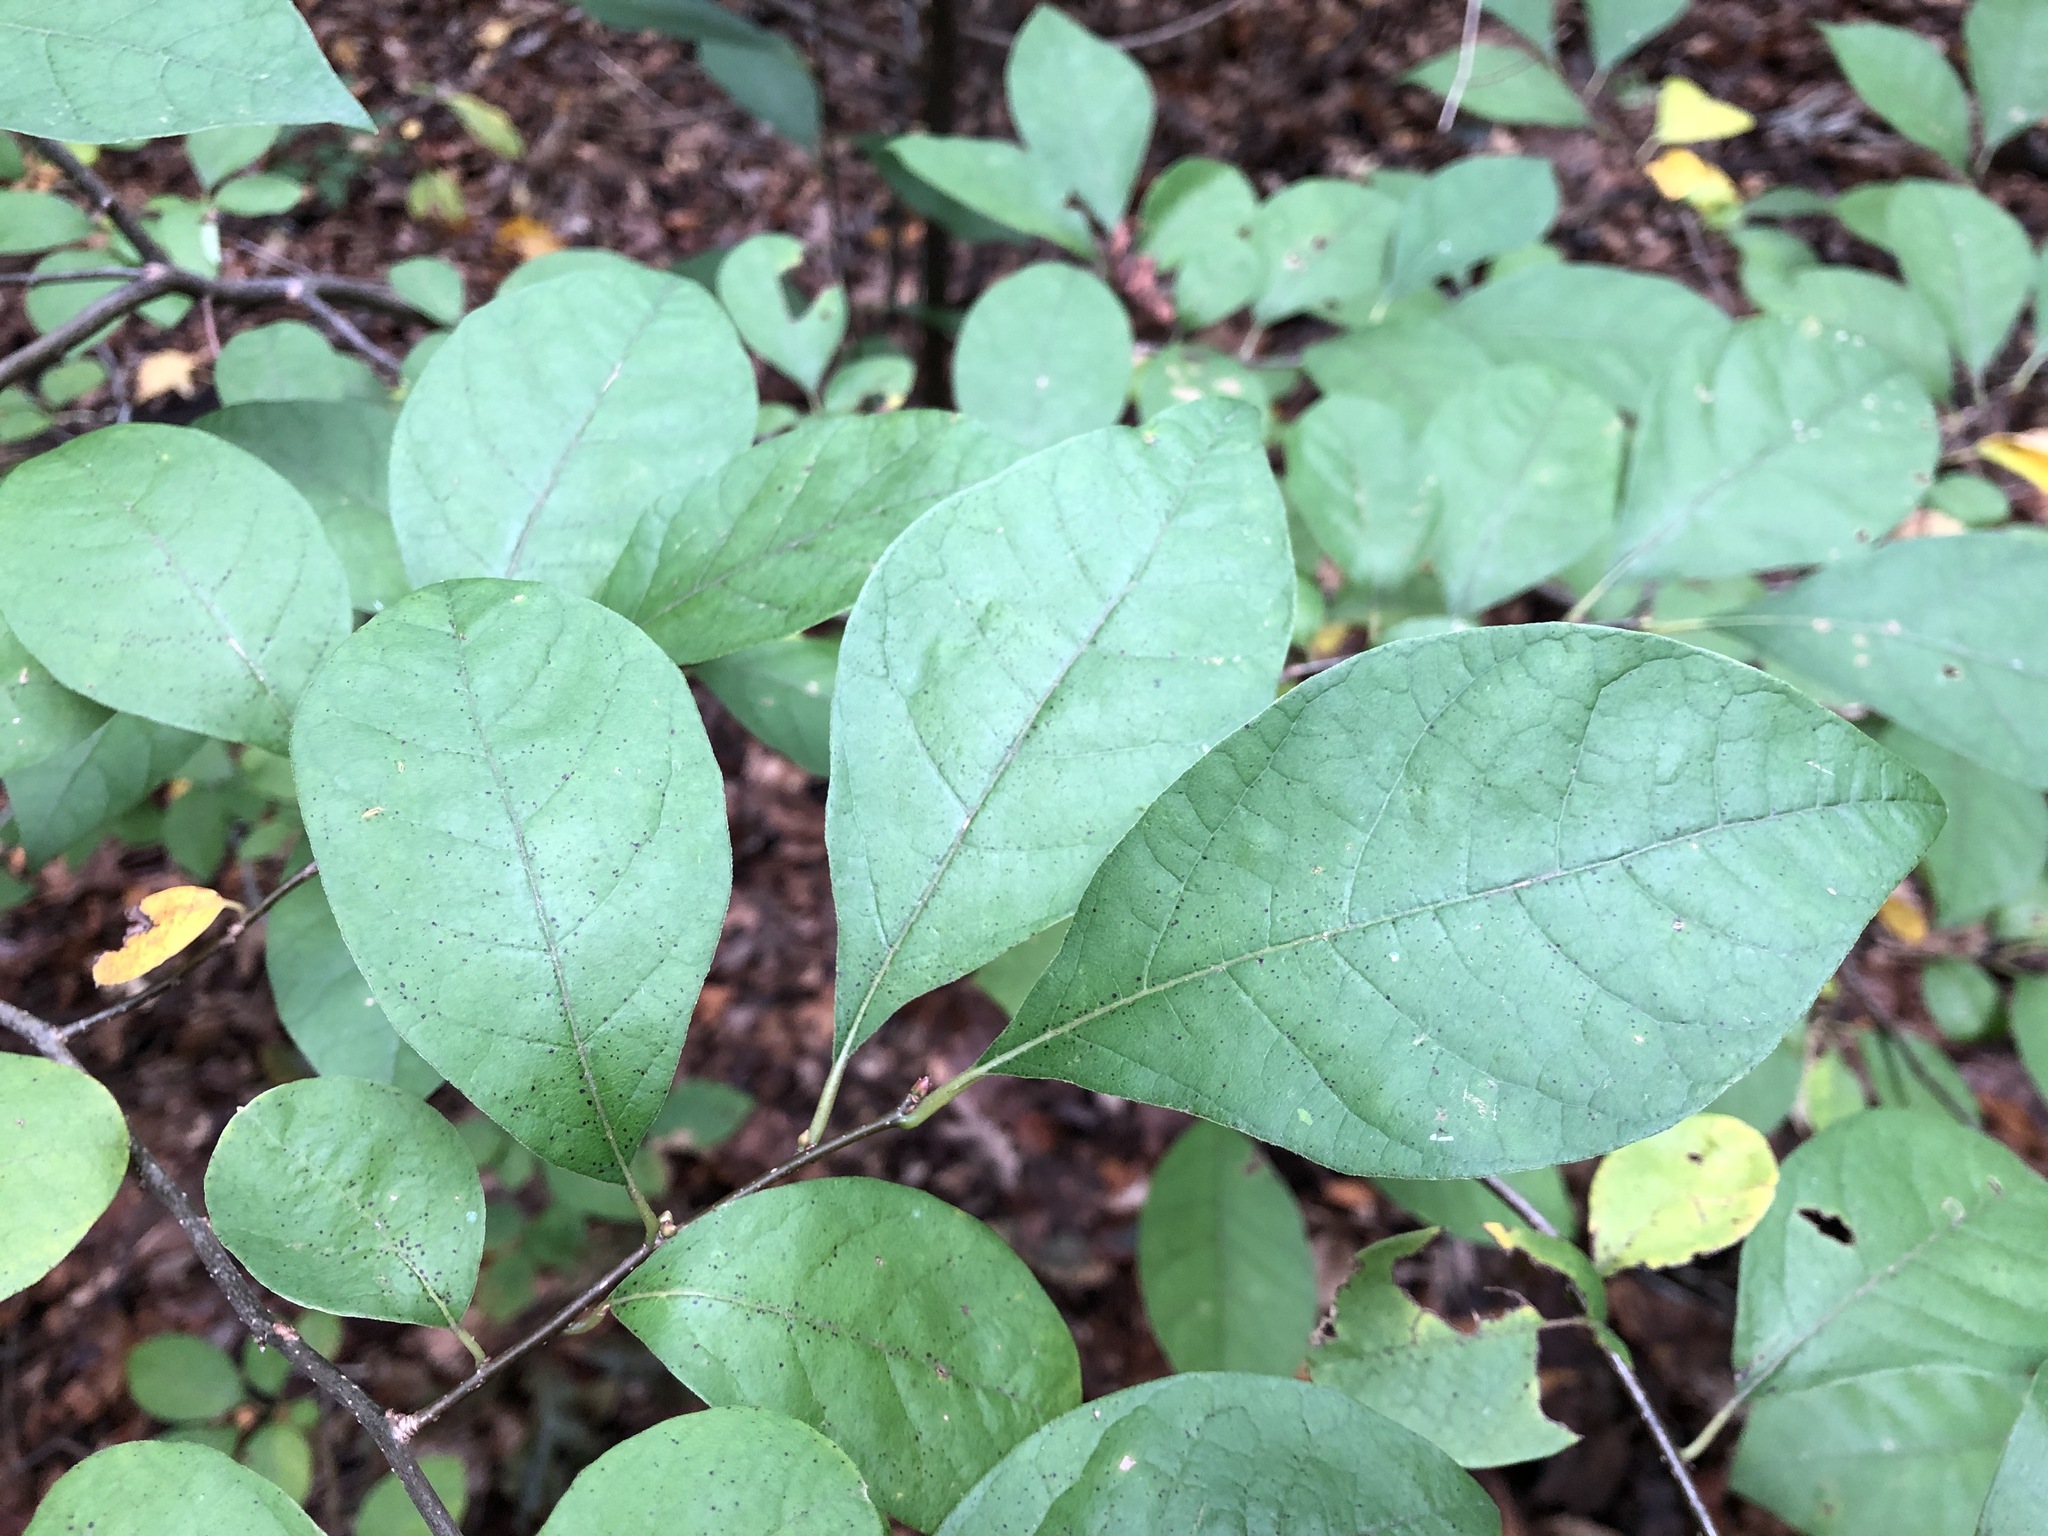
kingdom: Plantae
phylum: Tracheophyta
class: Magnoliopsida
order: Laurales
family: Lauraceae
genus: Lindera
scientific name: Lindera benzoin
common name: Spicebush
